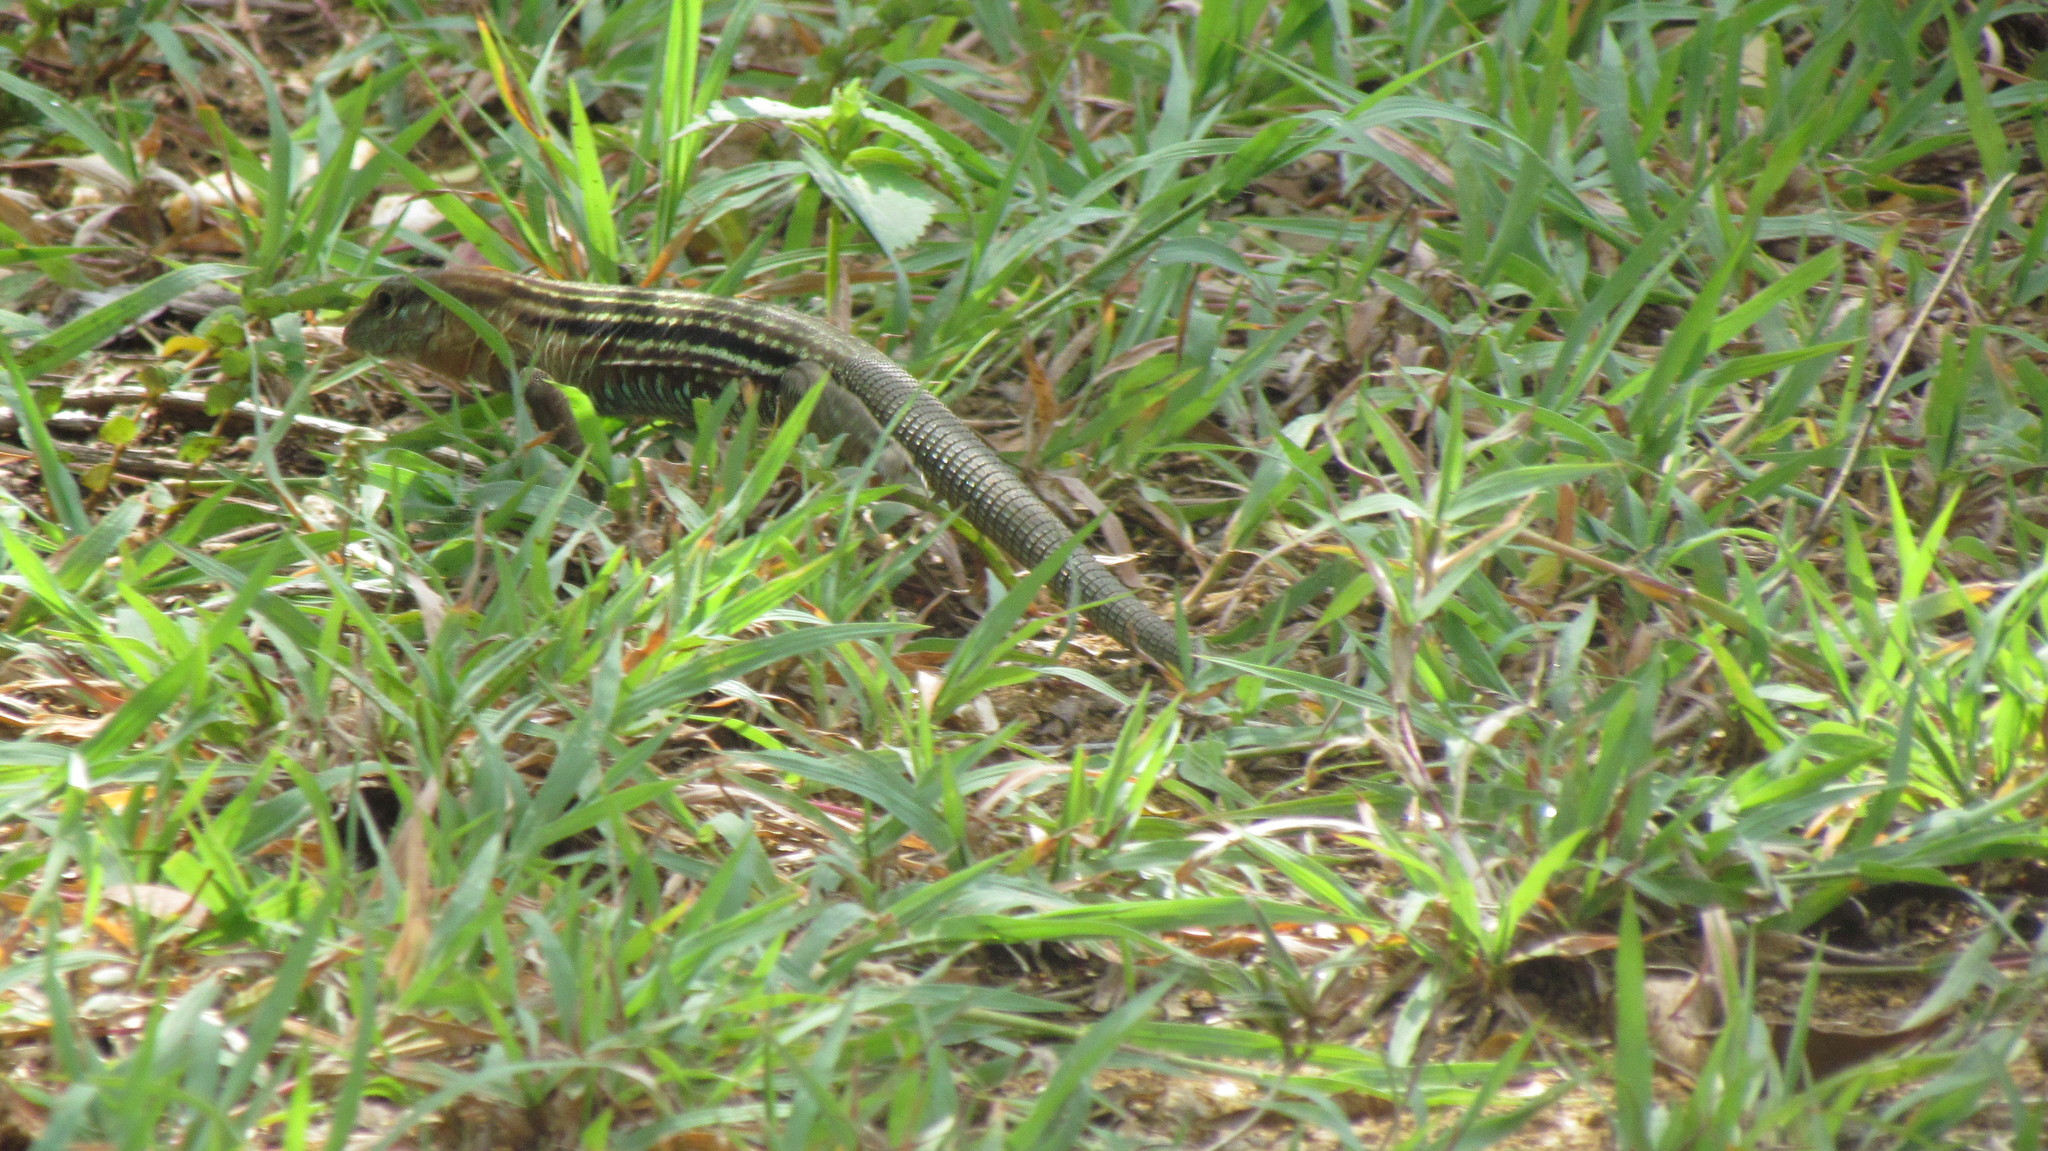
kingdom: Animalia
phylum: Chordata
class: Squamata
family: Teiidae
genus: Aspidoscelis
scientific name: Aspidoscelis deppii
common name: Blackbelly racerunner
